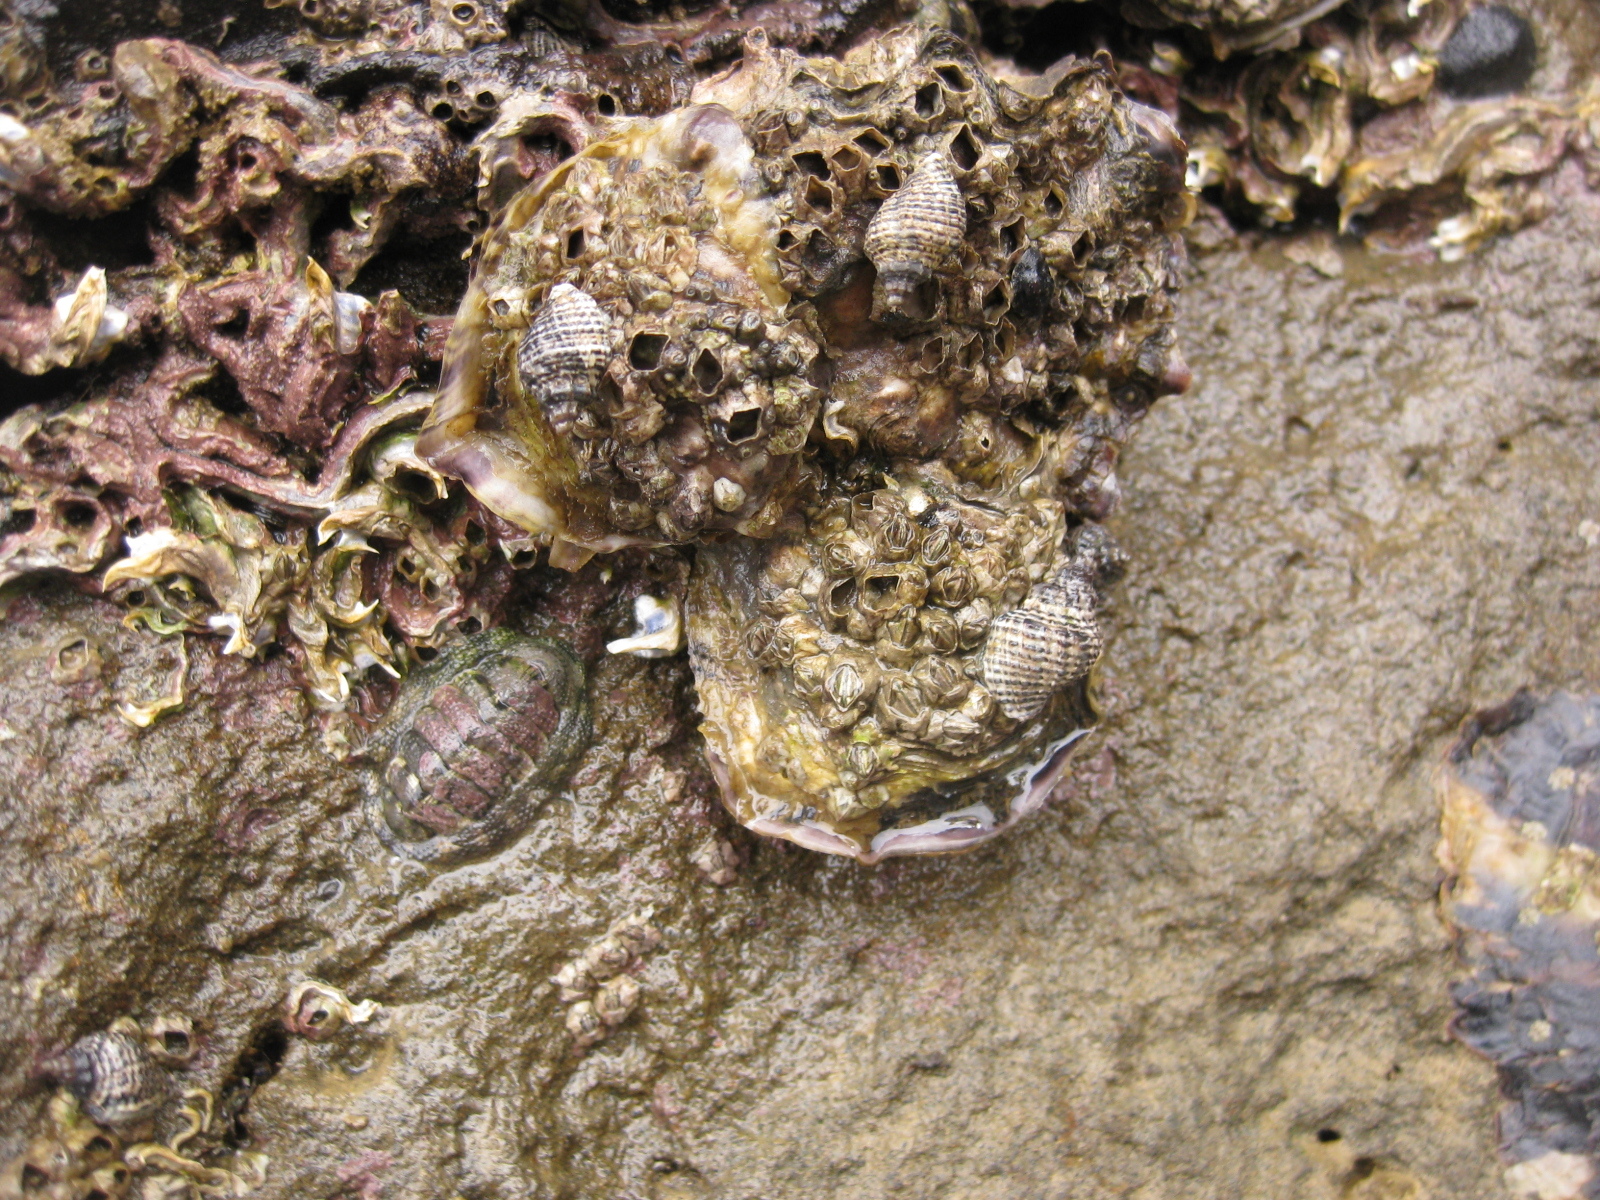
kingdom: Animalia
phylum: Mollusca
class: Gastropoda
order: Neogastropoda
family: Muricidae
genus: Haustrum
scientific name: Haustrum albomarginatum
